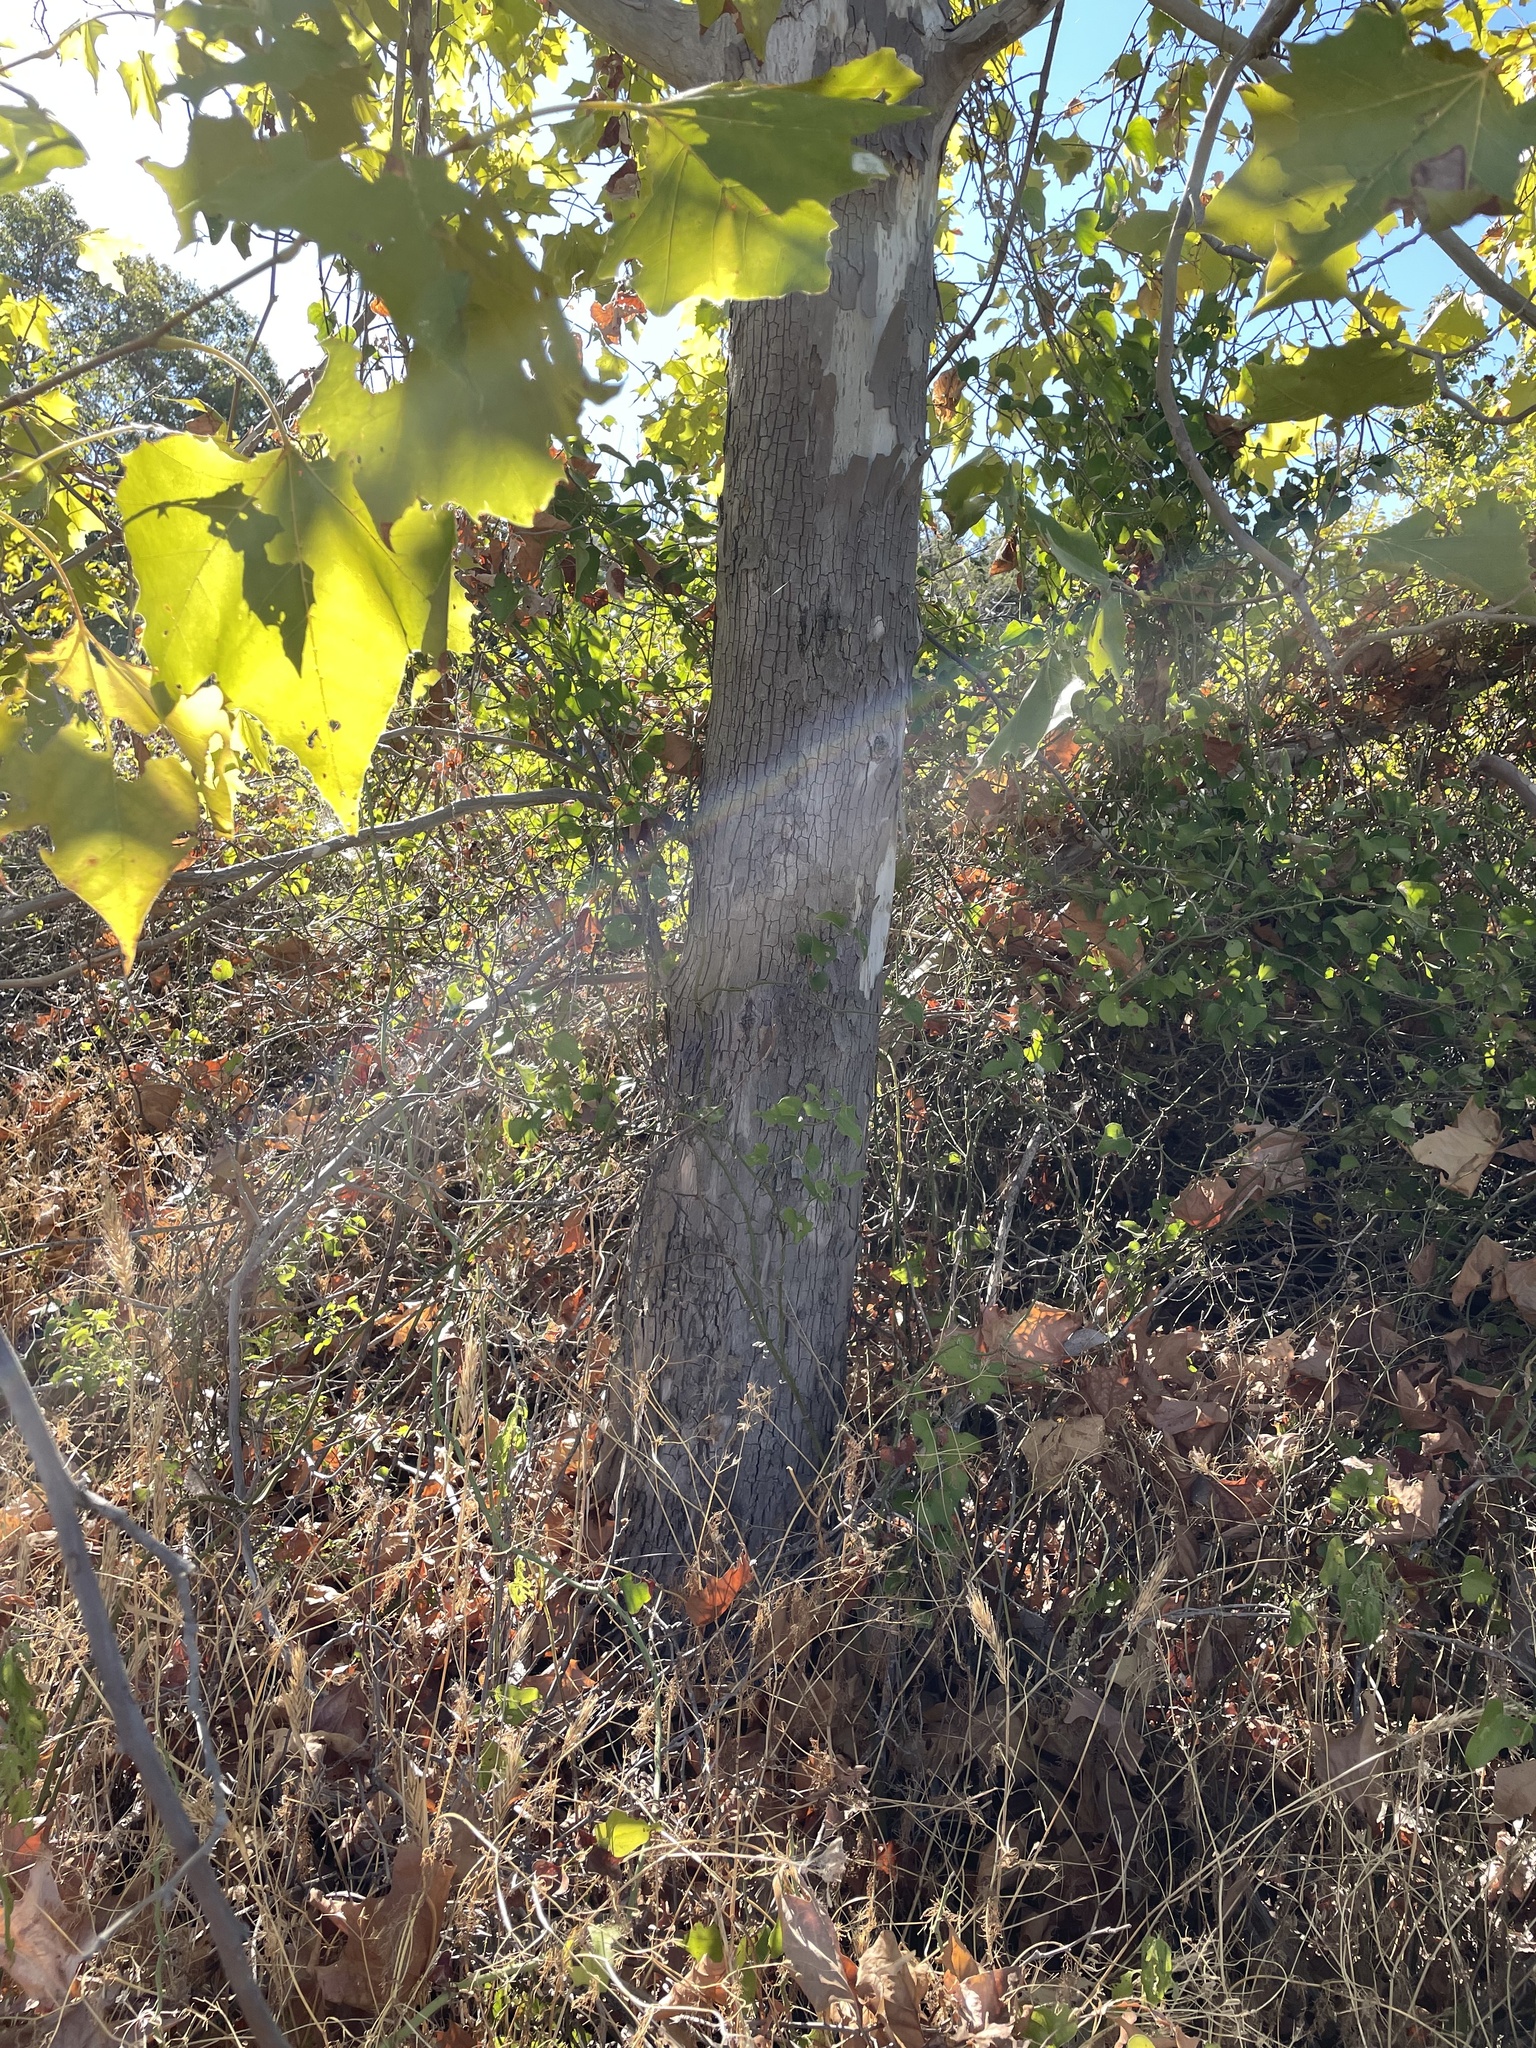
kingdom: Plantae
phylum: Tracheophyta
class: Magnoliopsida
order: Proteales
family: Platanaceae
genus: Platanus
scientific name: Platanus occidentalis
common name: American sycamore
